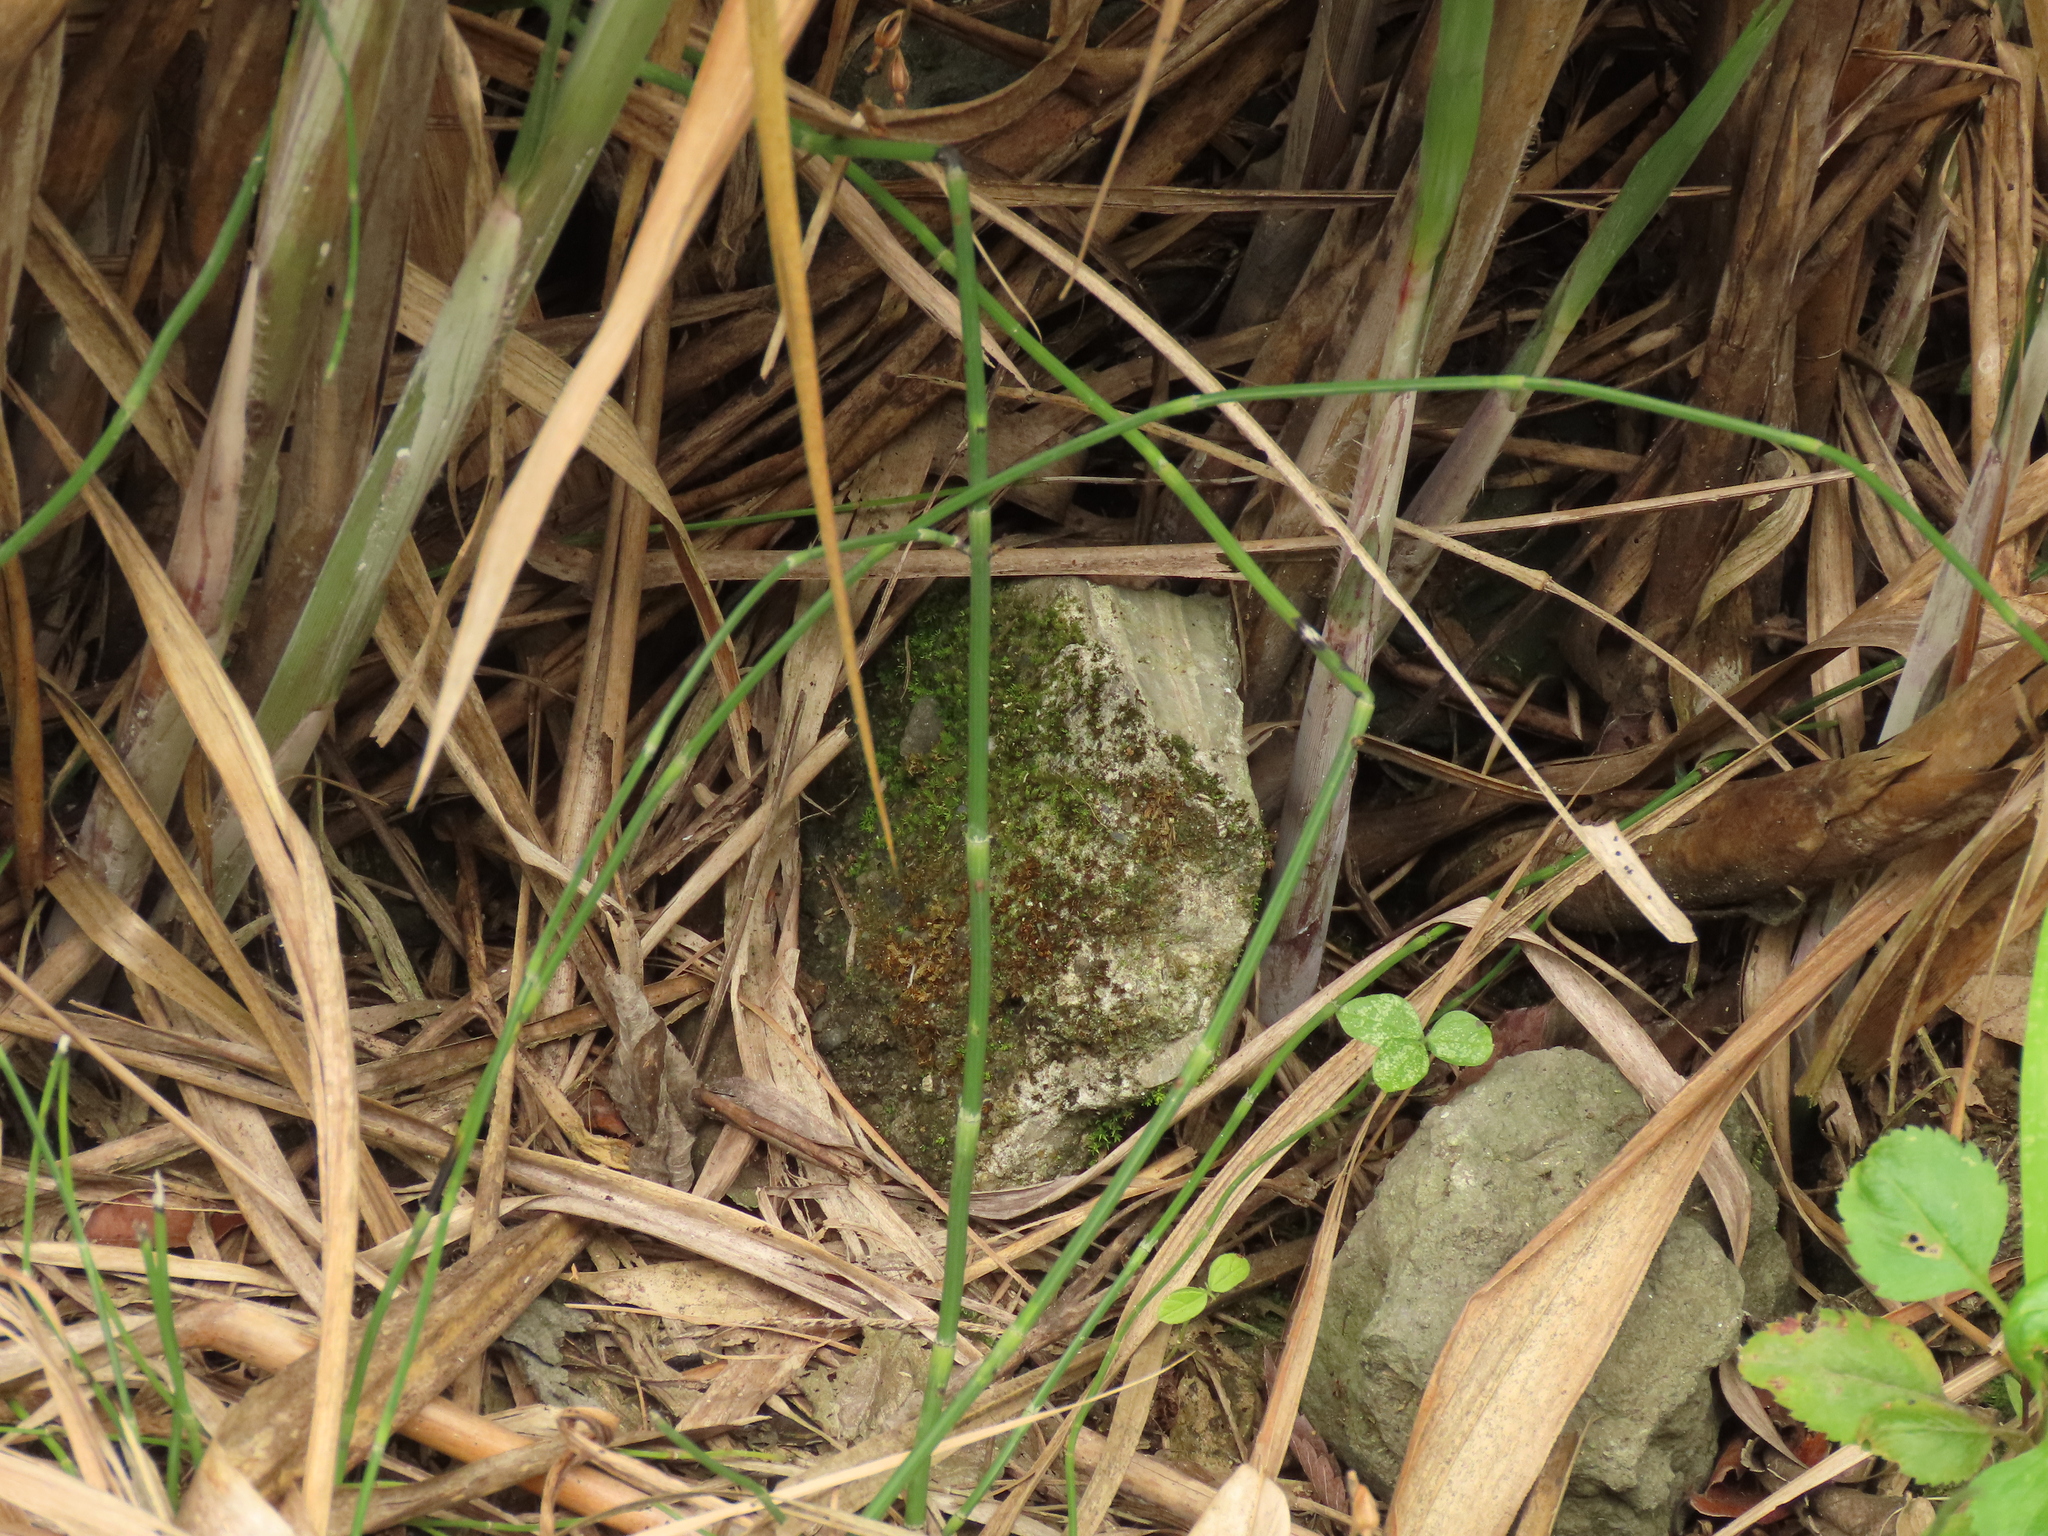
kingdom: Plantae
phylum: Tracheophyta
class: Polypodiopsida
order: Equisetales
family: Equisetaceae
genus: Equisetum
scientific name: Equisetum ramosissimum
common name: Branched horsetail
